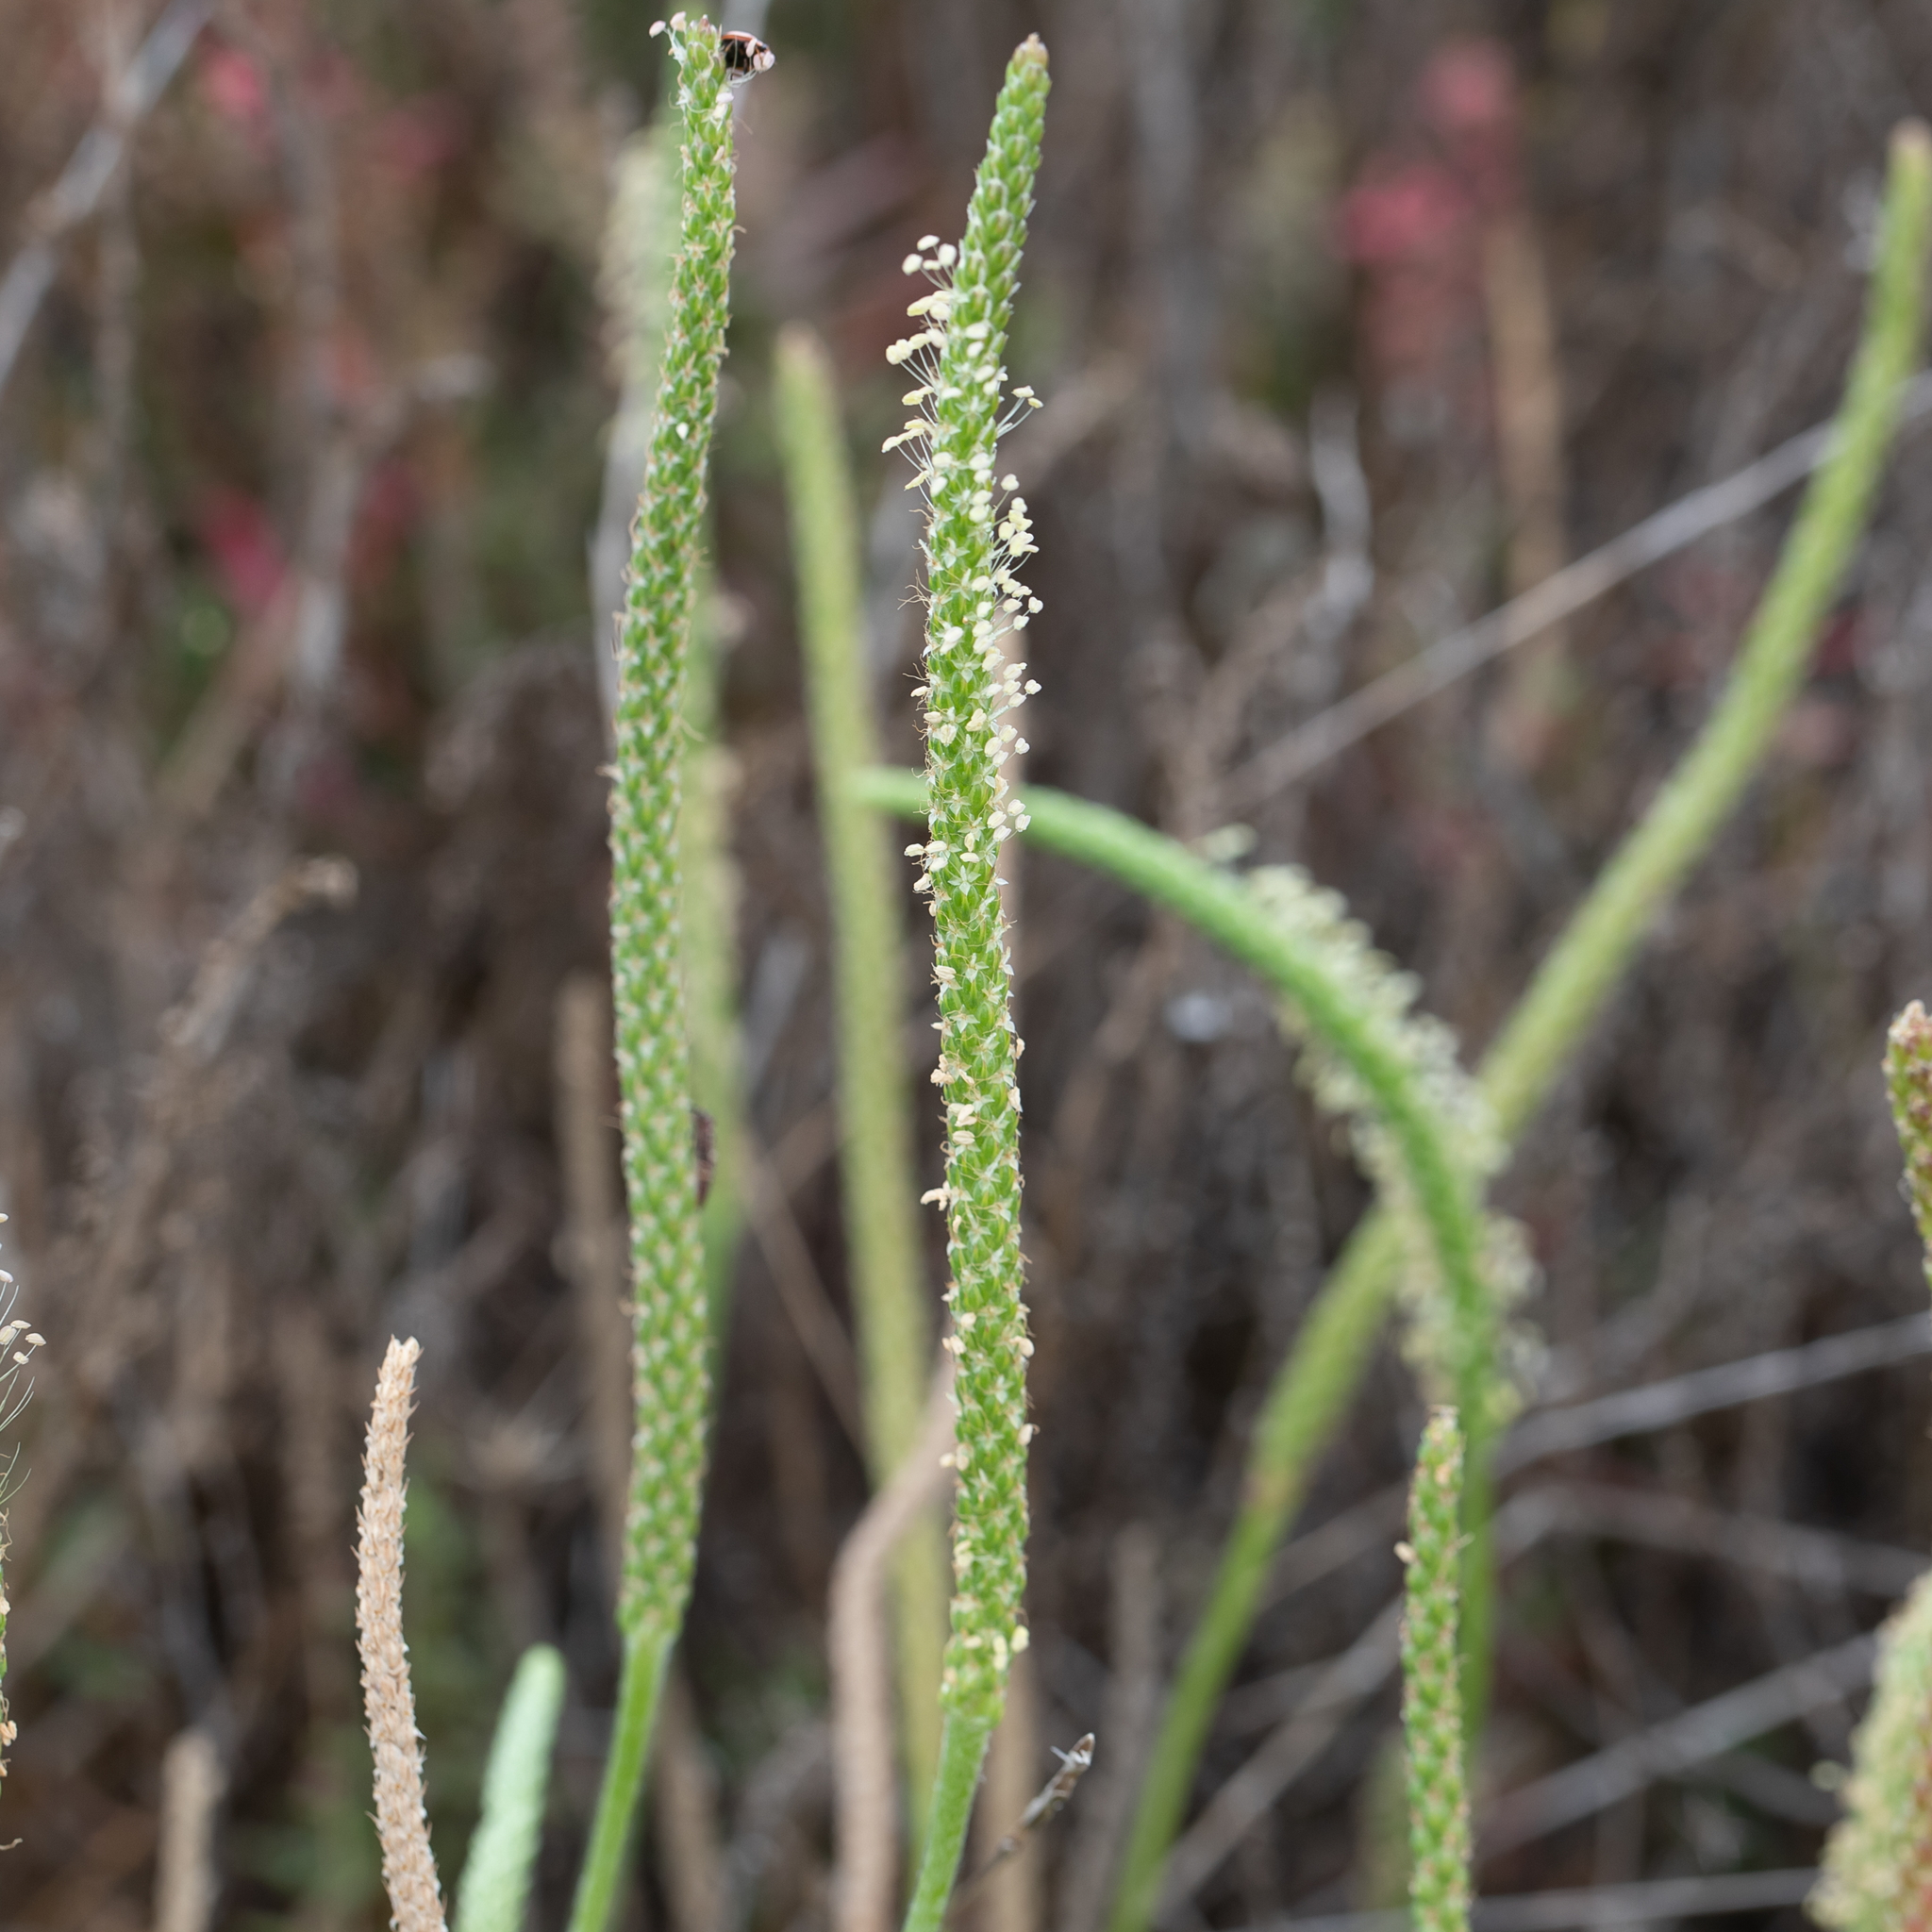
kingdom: Plantae
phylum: Tracheophyta
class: Magnoliopsida
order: Lamiales
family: Plantaginaceae
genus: Plantago
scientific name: Plantago coronopus
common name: Buck's-horn plantain
